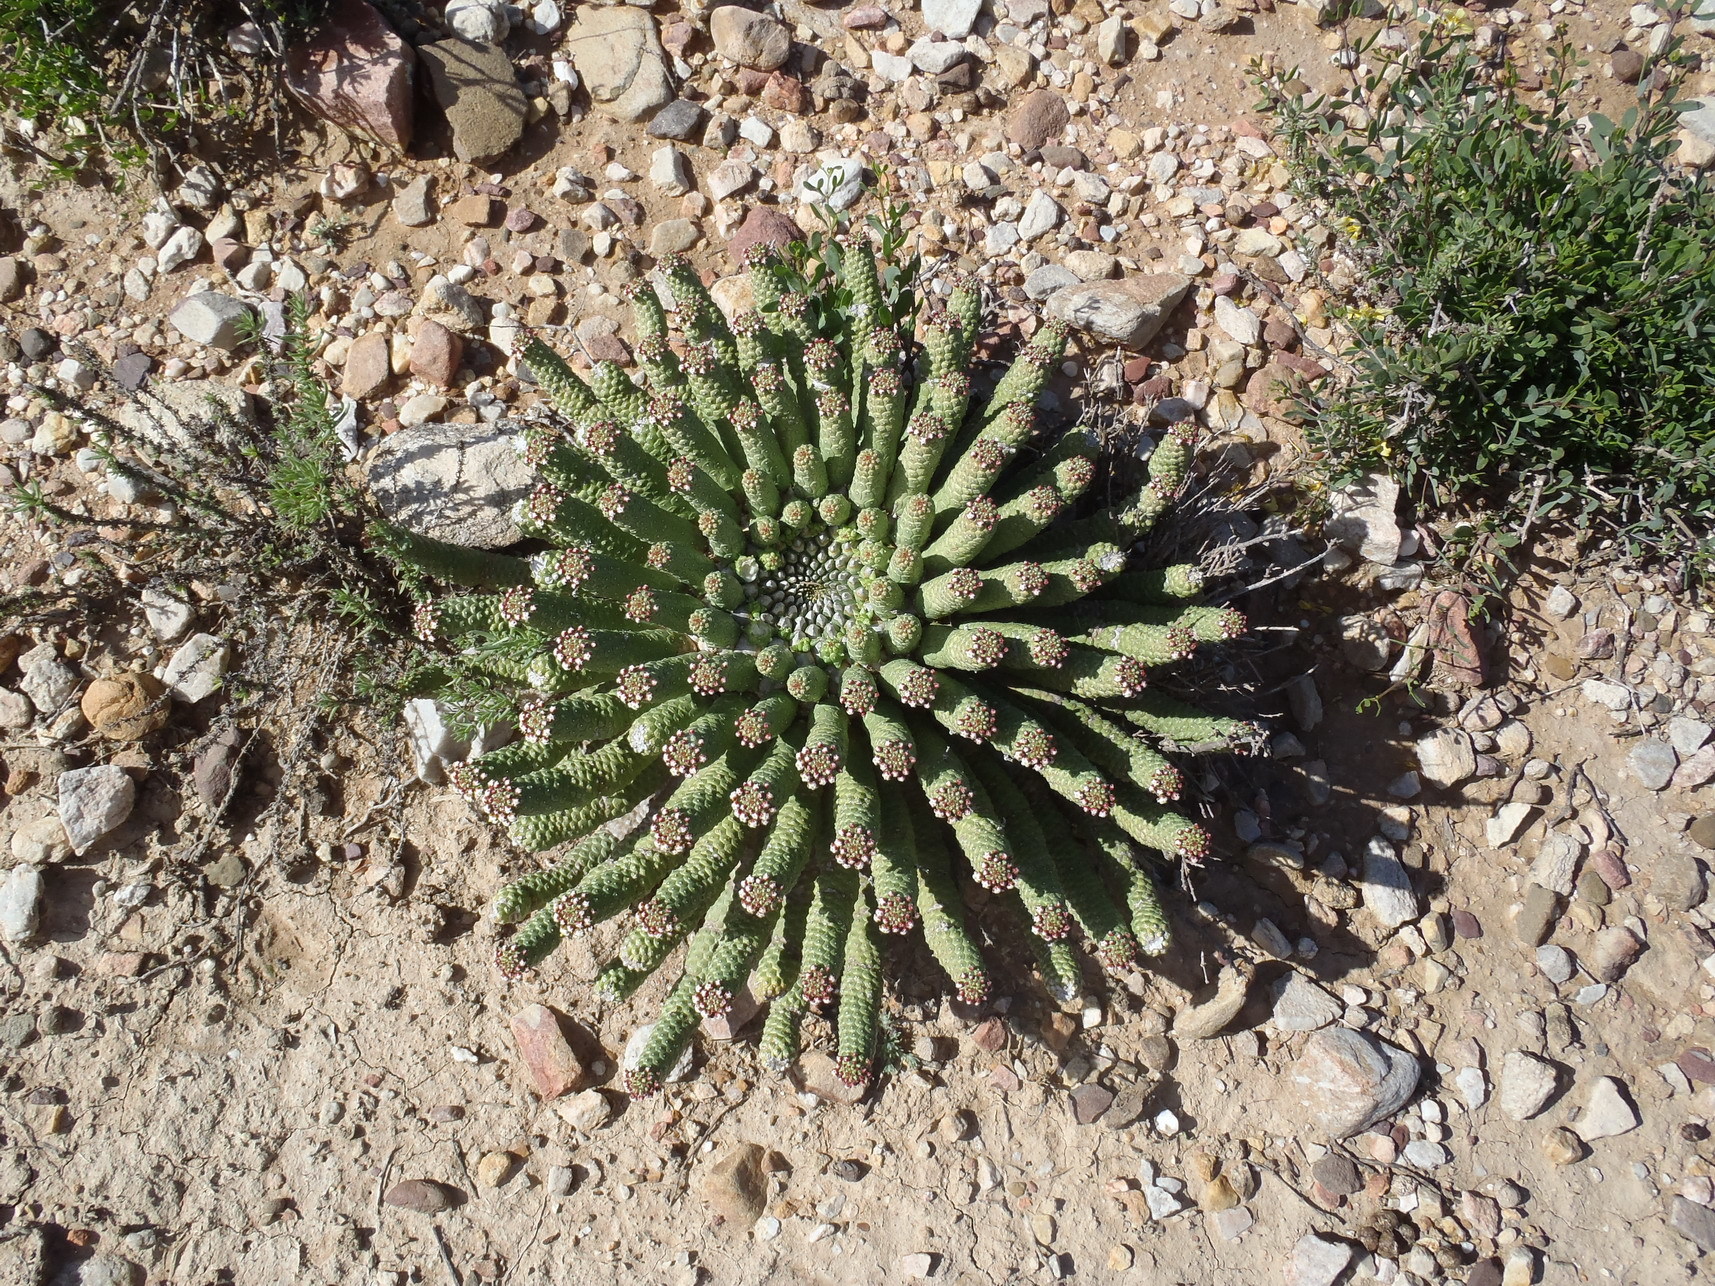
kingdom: Plantae
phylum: Tracheophyta
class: Magnoliopsida
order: Malpighiales
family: Euphorbiaceae
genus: Euphorbia
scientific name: Euphorbia esculenta
